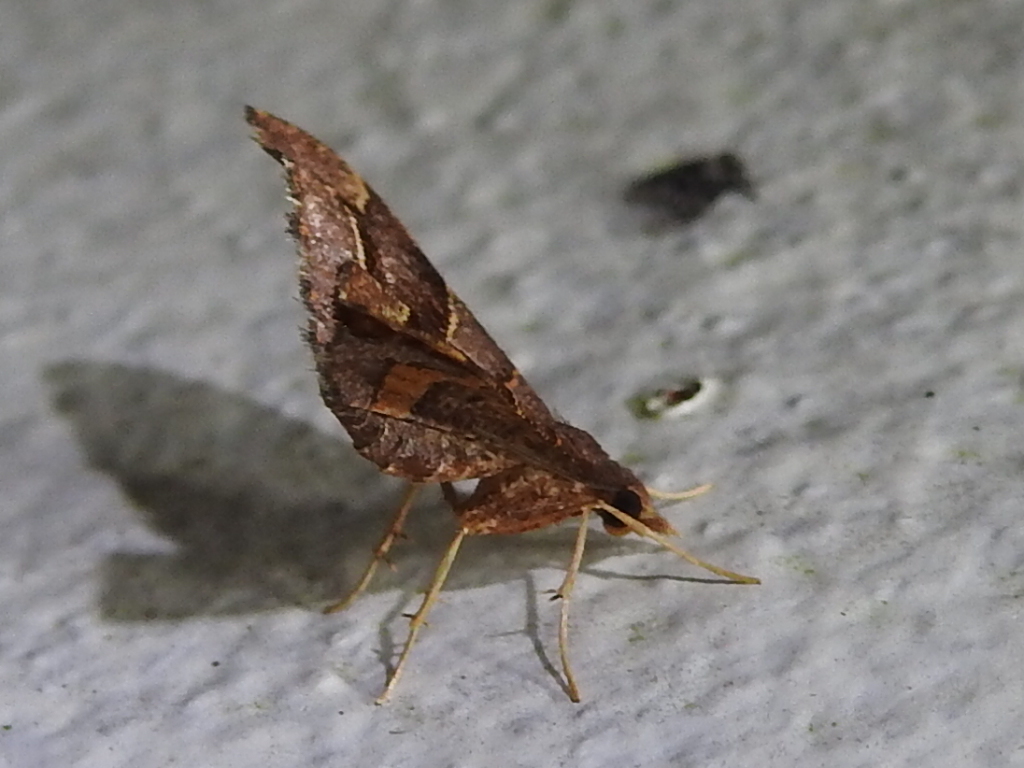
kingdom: Animalia
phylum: Arthropoda
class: Insecta
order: Lepidoptera
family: Geometridae
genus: Psaliodes
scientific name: Psaliodes cronia
